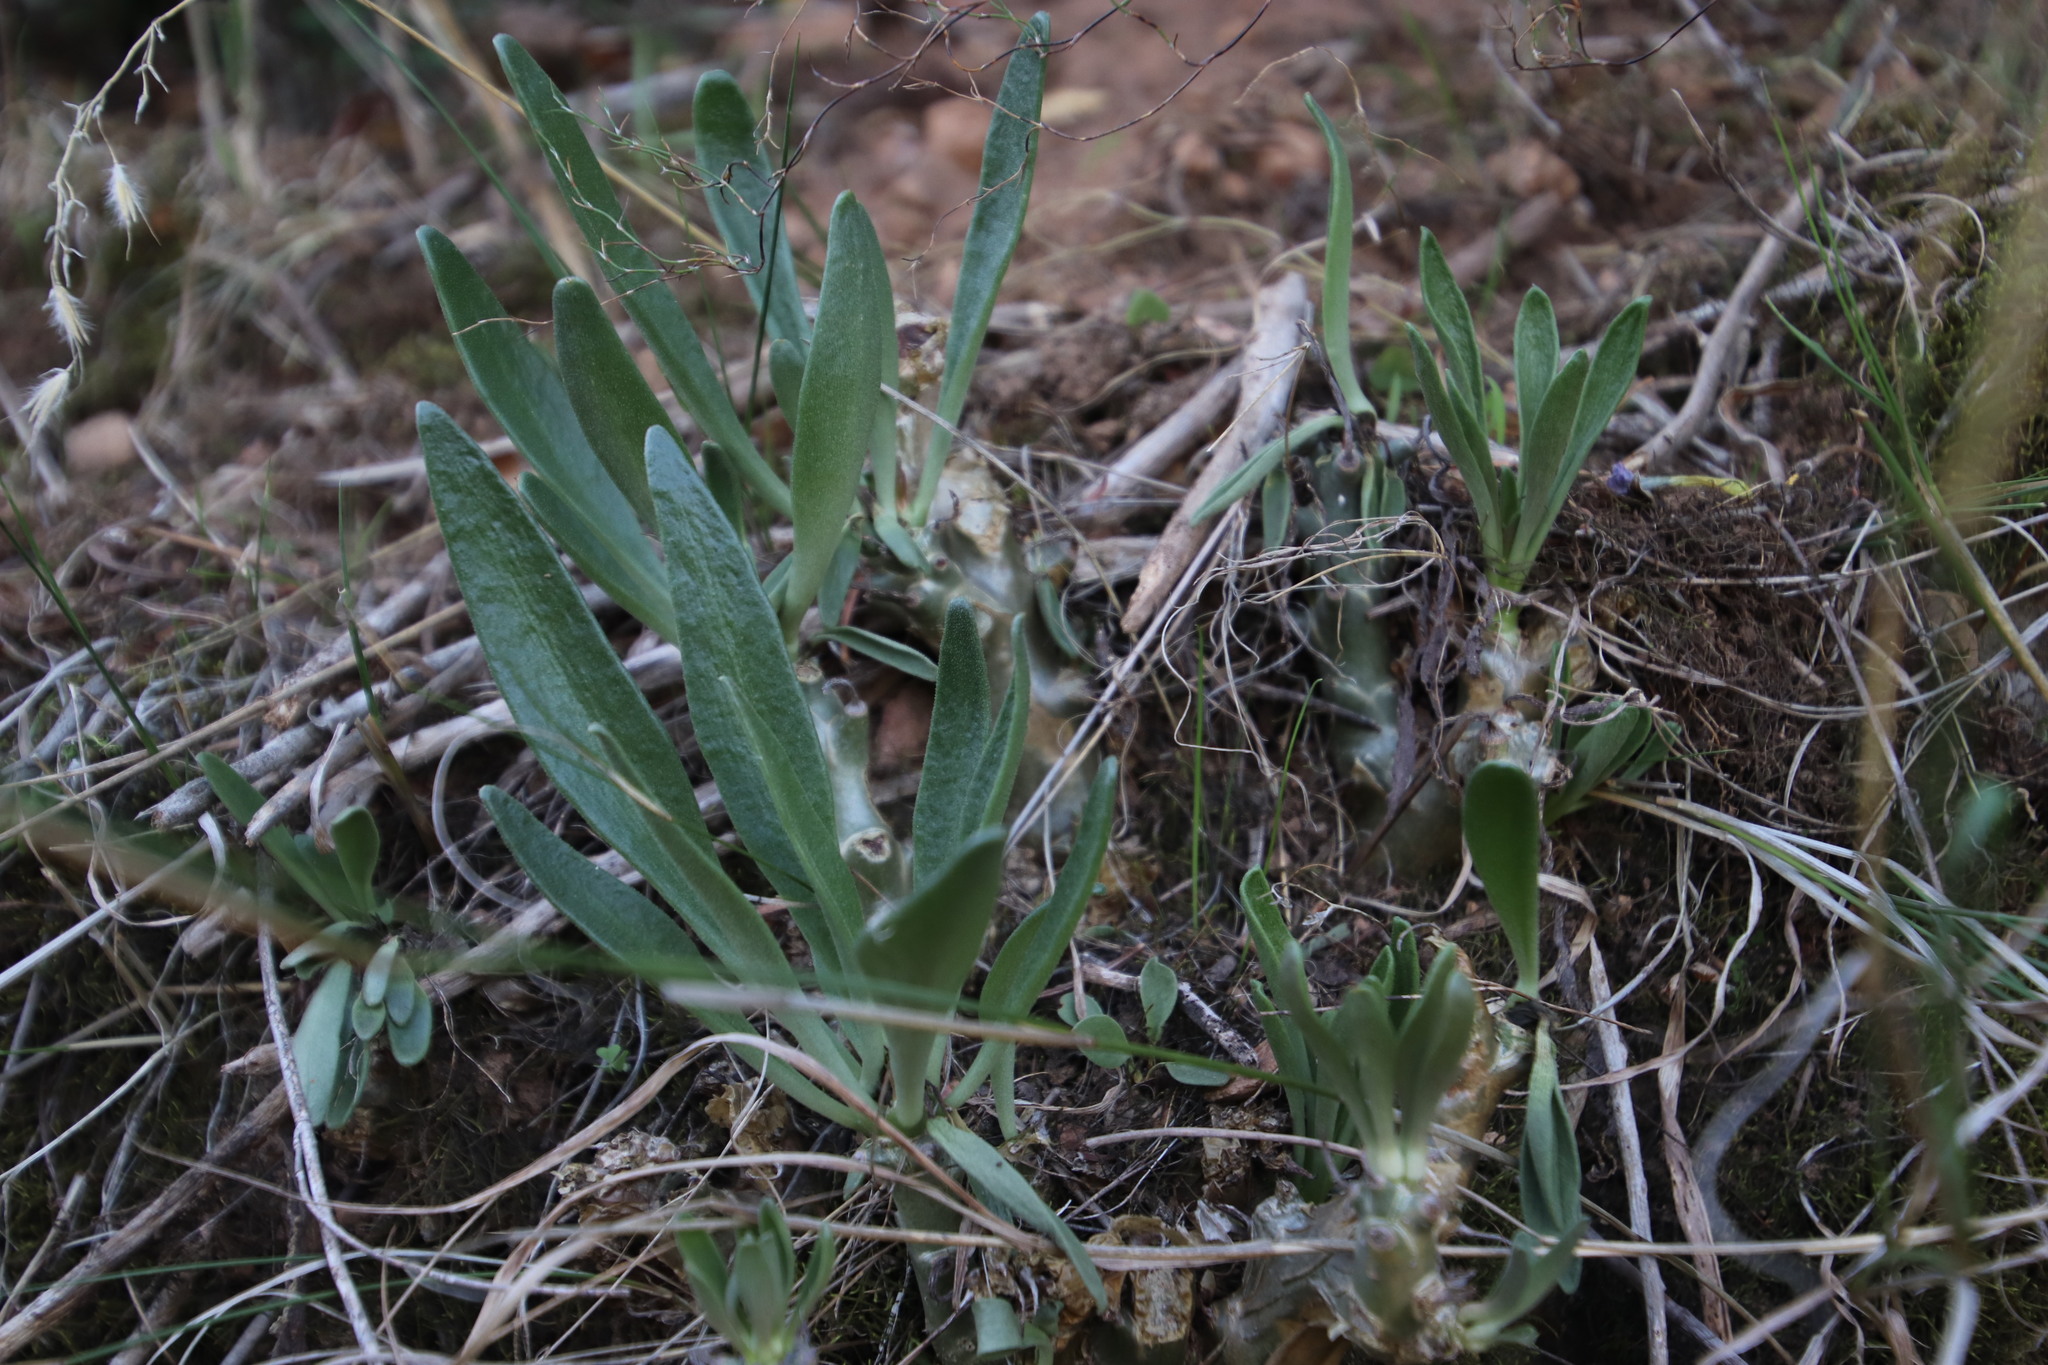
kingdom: Plantae
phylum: Tracheophyta
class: Magnoliopsida
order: Saxifragales
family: Crassulaceae
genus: Tylecodon
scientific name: Tylecodon grandiflorus
